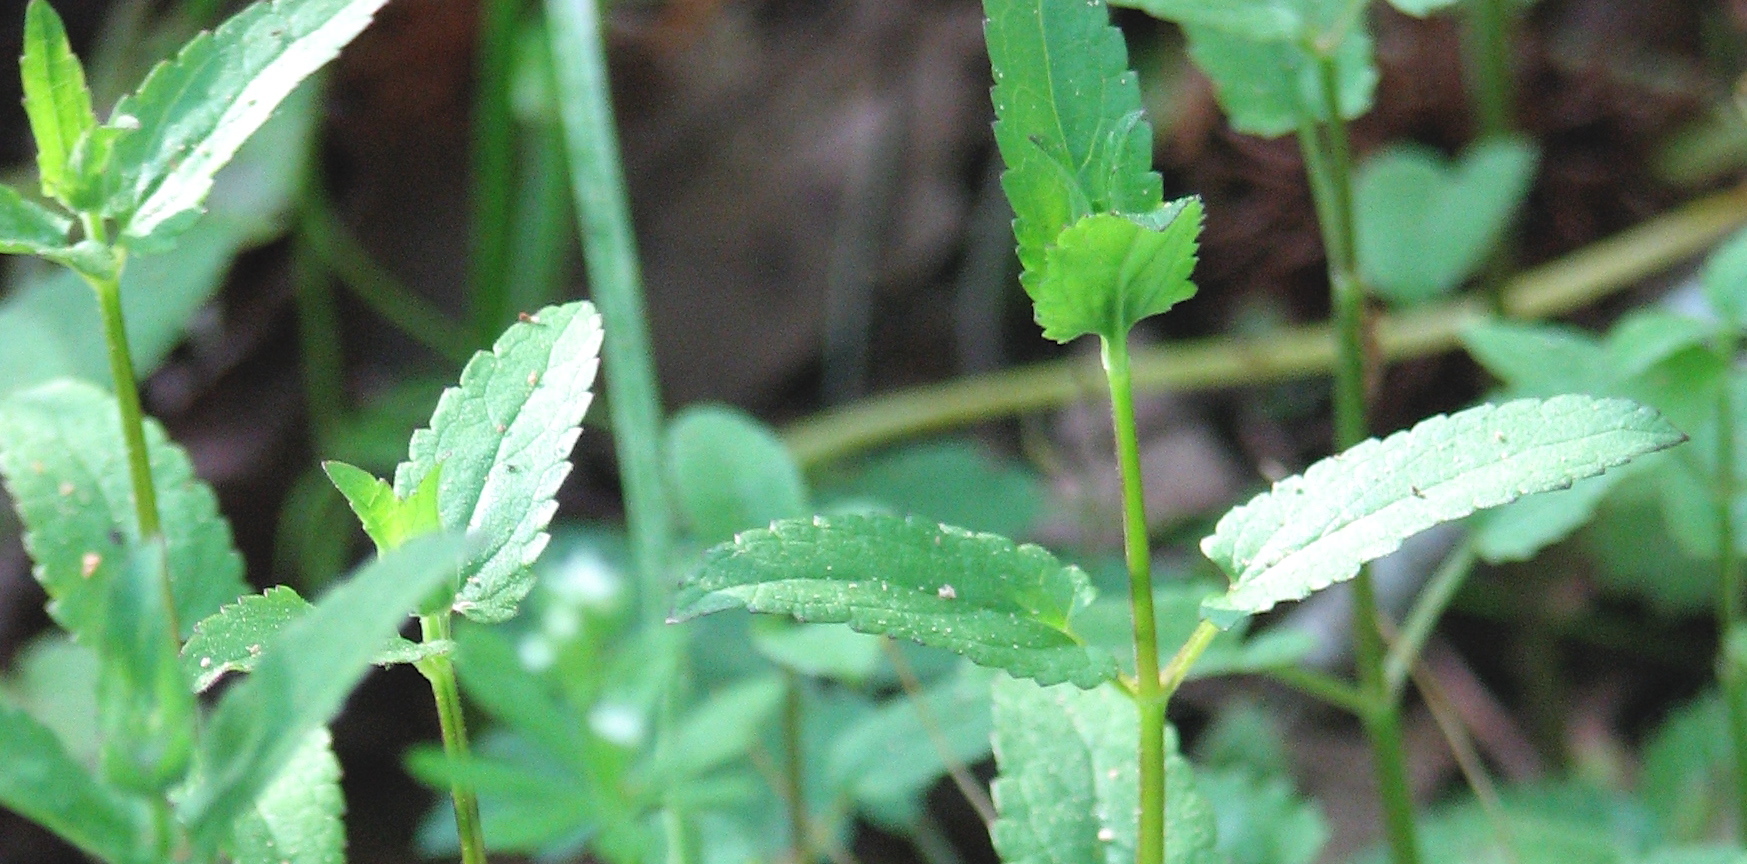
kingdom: Plantae
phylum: Tracheophyta
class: Magnoliopsida
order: Lamiales
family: Lamiaceae
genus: Stachys
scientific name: Stachys floridana
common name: Florida betony
